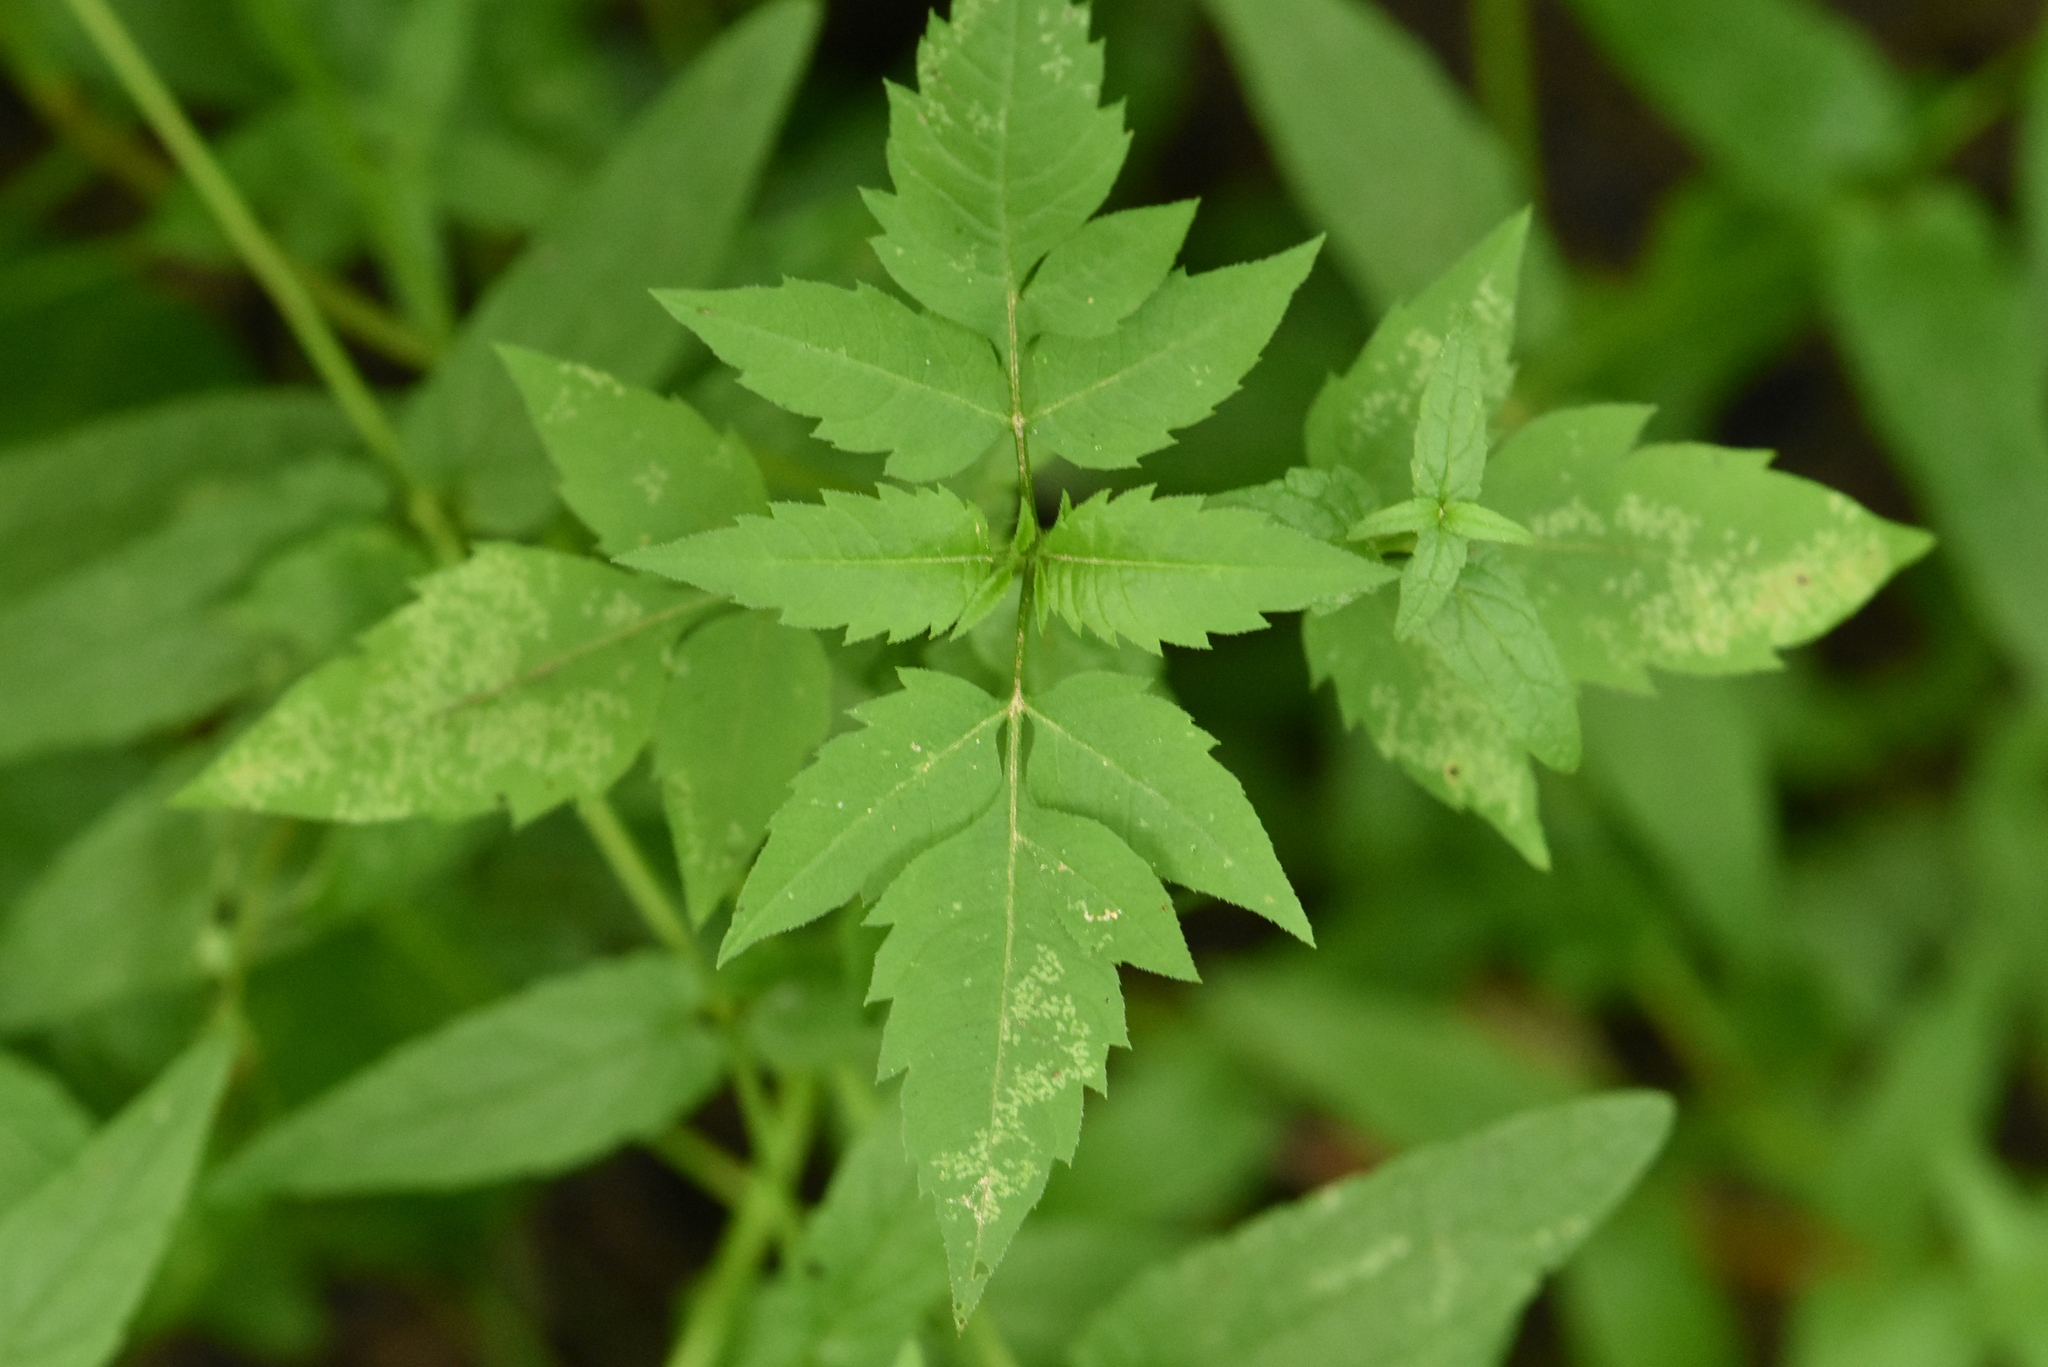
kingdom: Plantae
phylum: Tracheophyta
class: Magnoliopsida
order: Asterales
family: Asteraceae
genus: Bidens
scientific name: Bidens frondosa
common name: Beggarticks
